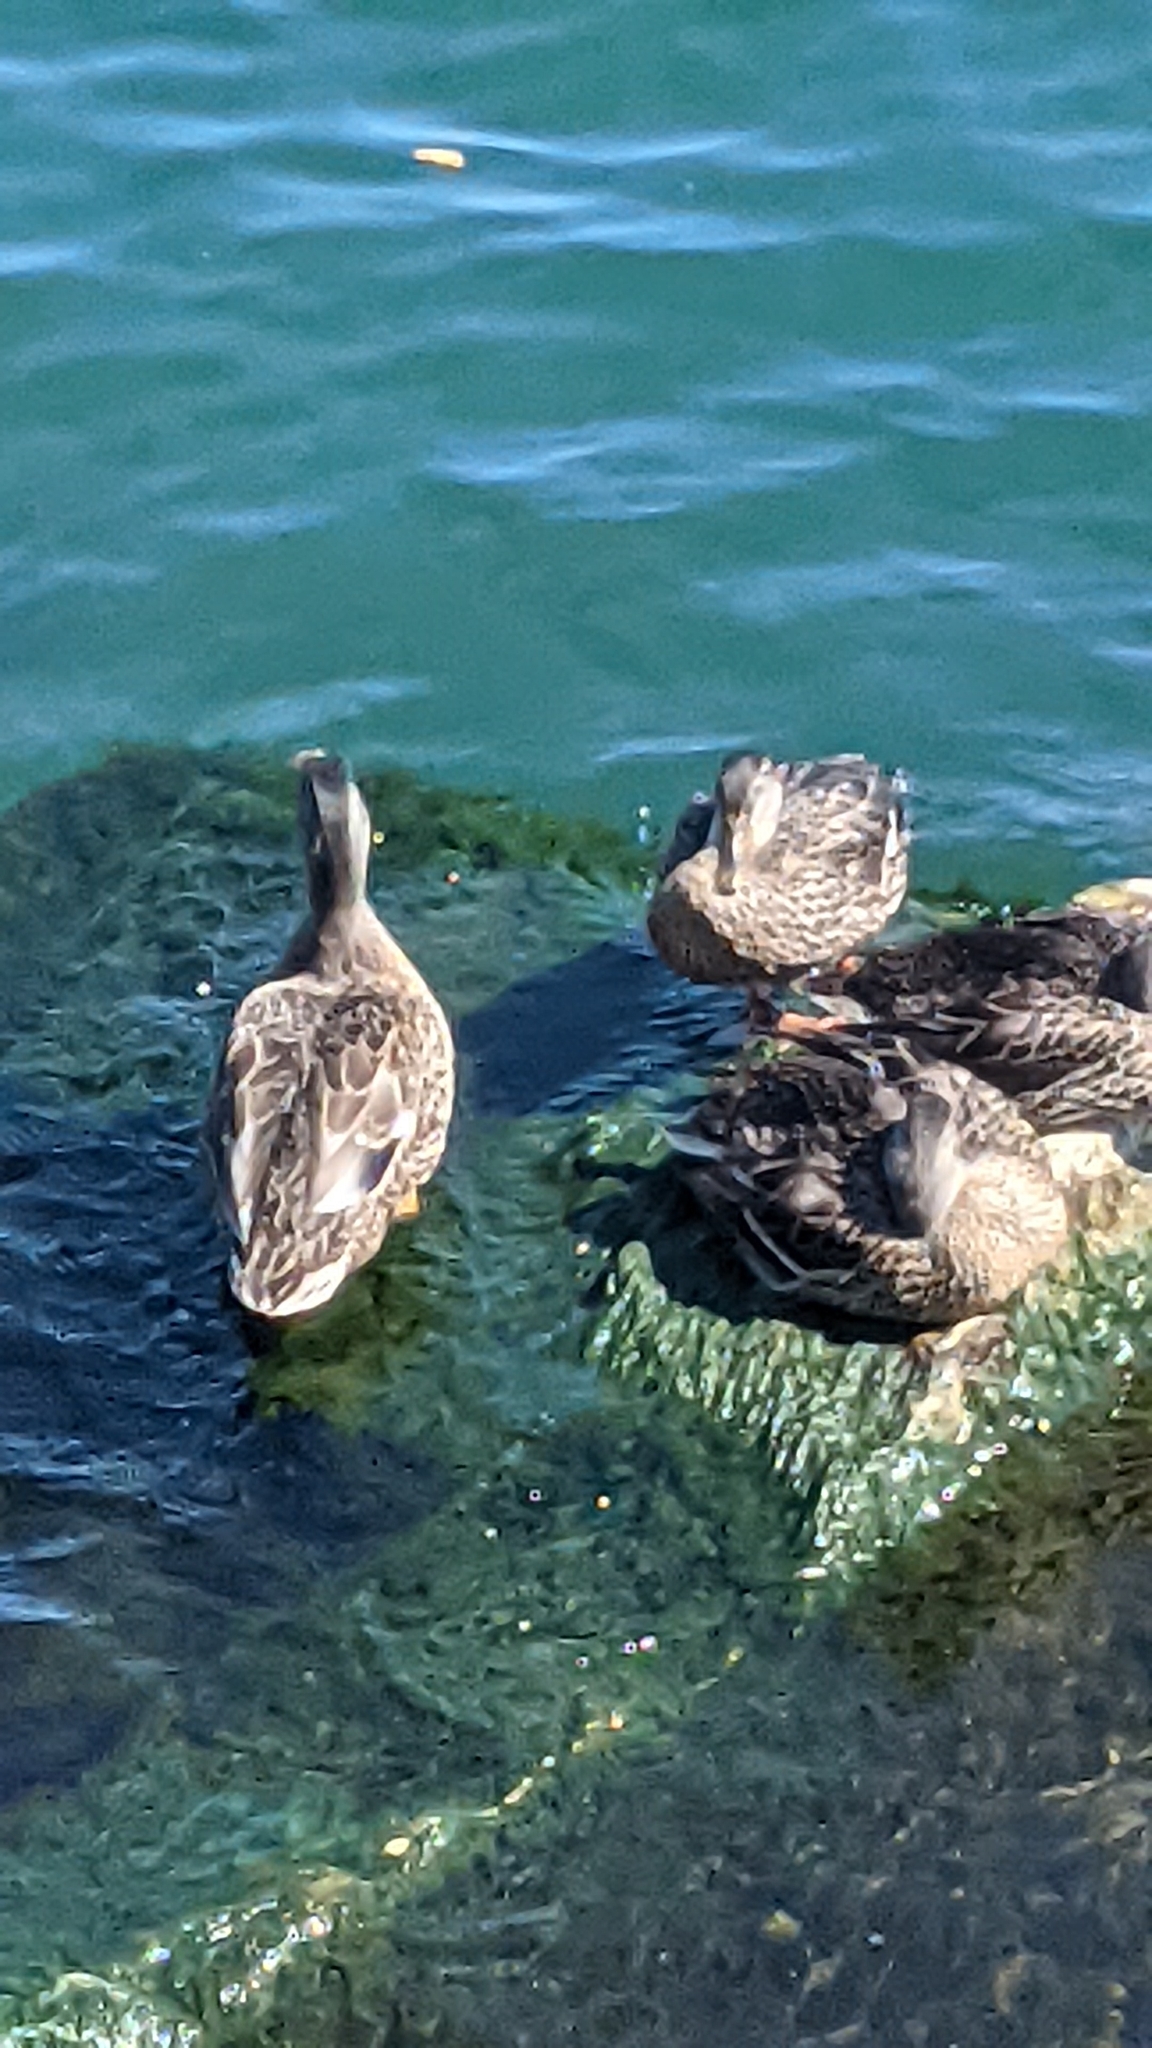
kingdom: Animalia
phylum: Chordata
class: Aves
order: Anseriformes
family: Anatidae
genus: Anas
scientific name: Anas platyrhynchos
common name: Mallard
